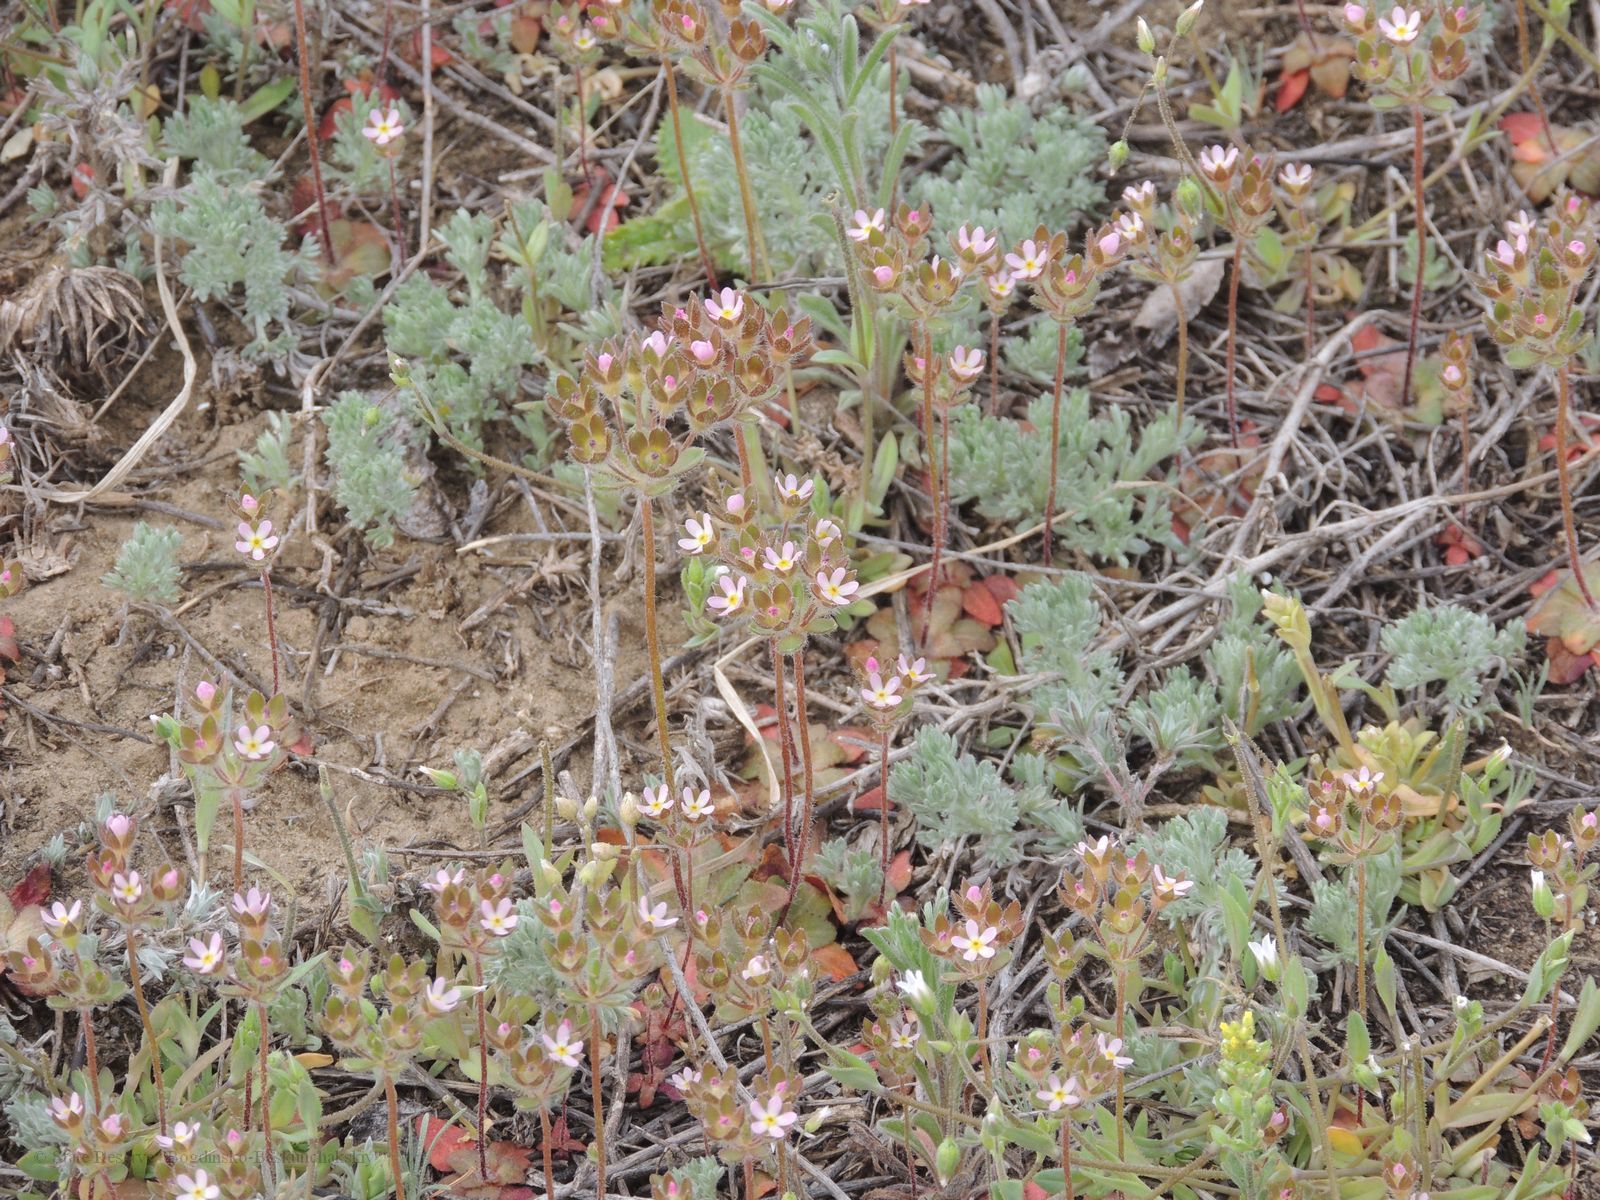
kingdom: Plantae
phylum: Tracheophyta
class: Magnoliopsida
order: Ericales
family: Primulaceae
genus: Androsace
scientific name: Androsace maxima
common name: Annual androsace
